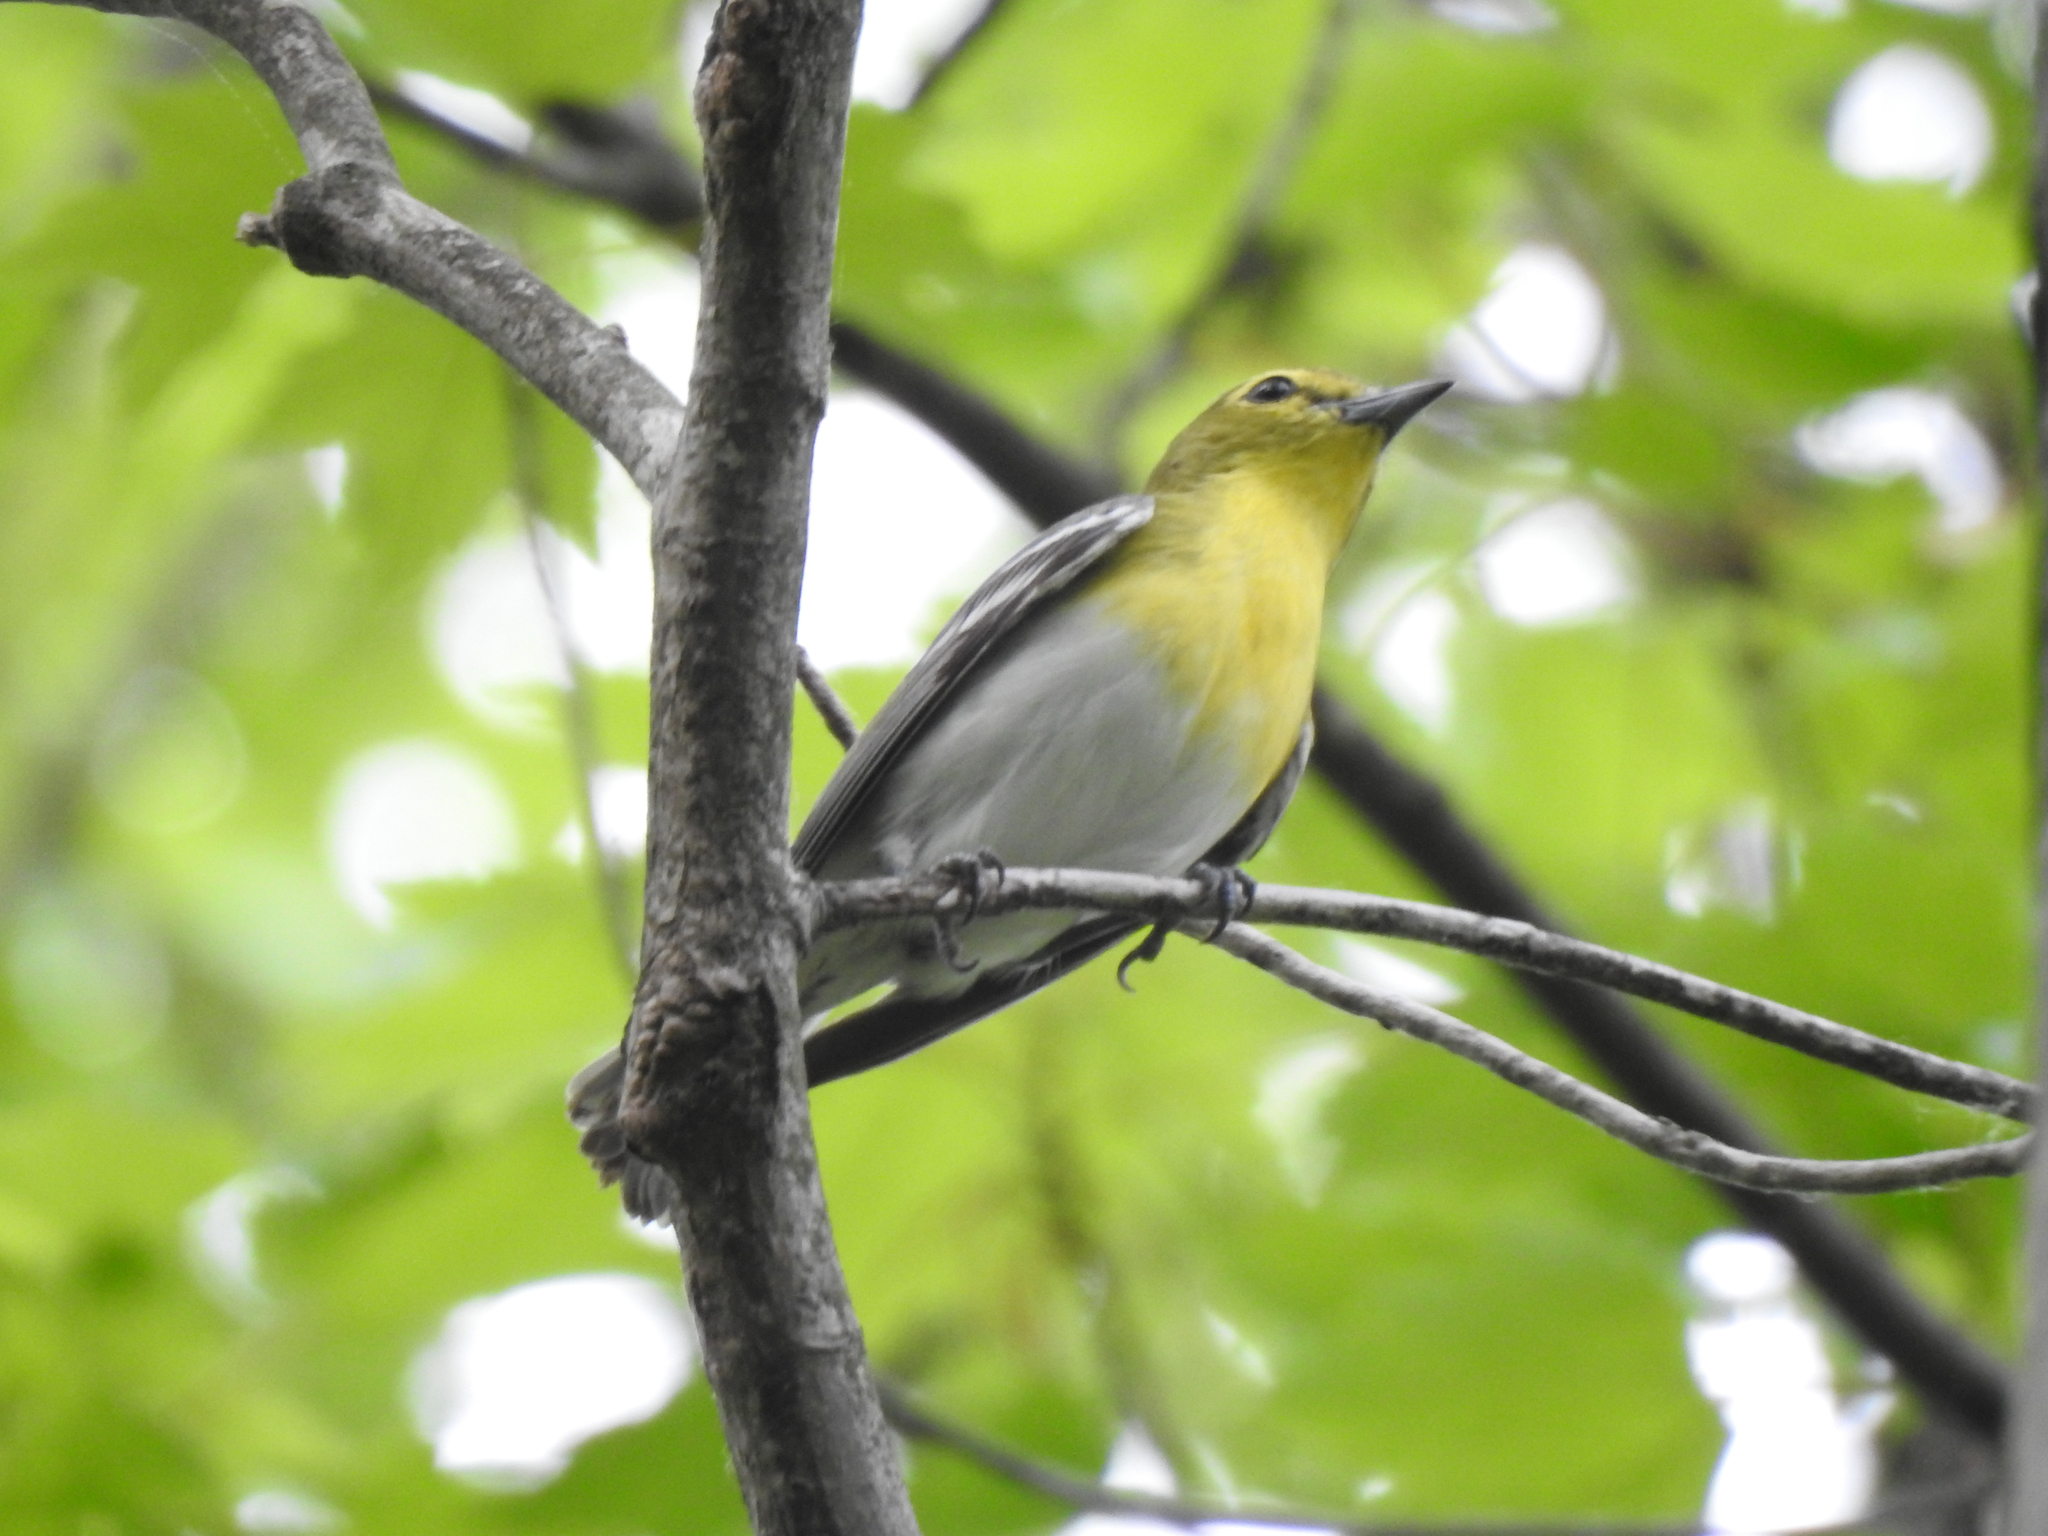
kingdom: Animalia
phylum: Chordata
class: Aves
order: Passeriformes
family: Vireonidae
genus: Vireo
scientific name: Vireo flavifrons
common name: Yellow-throated vireo
